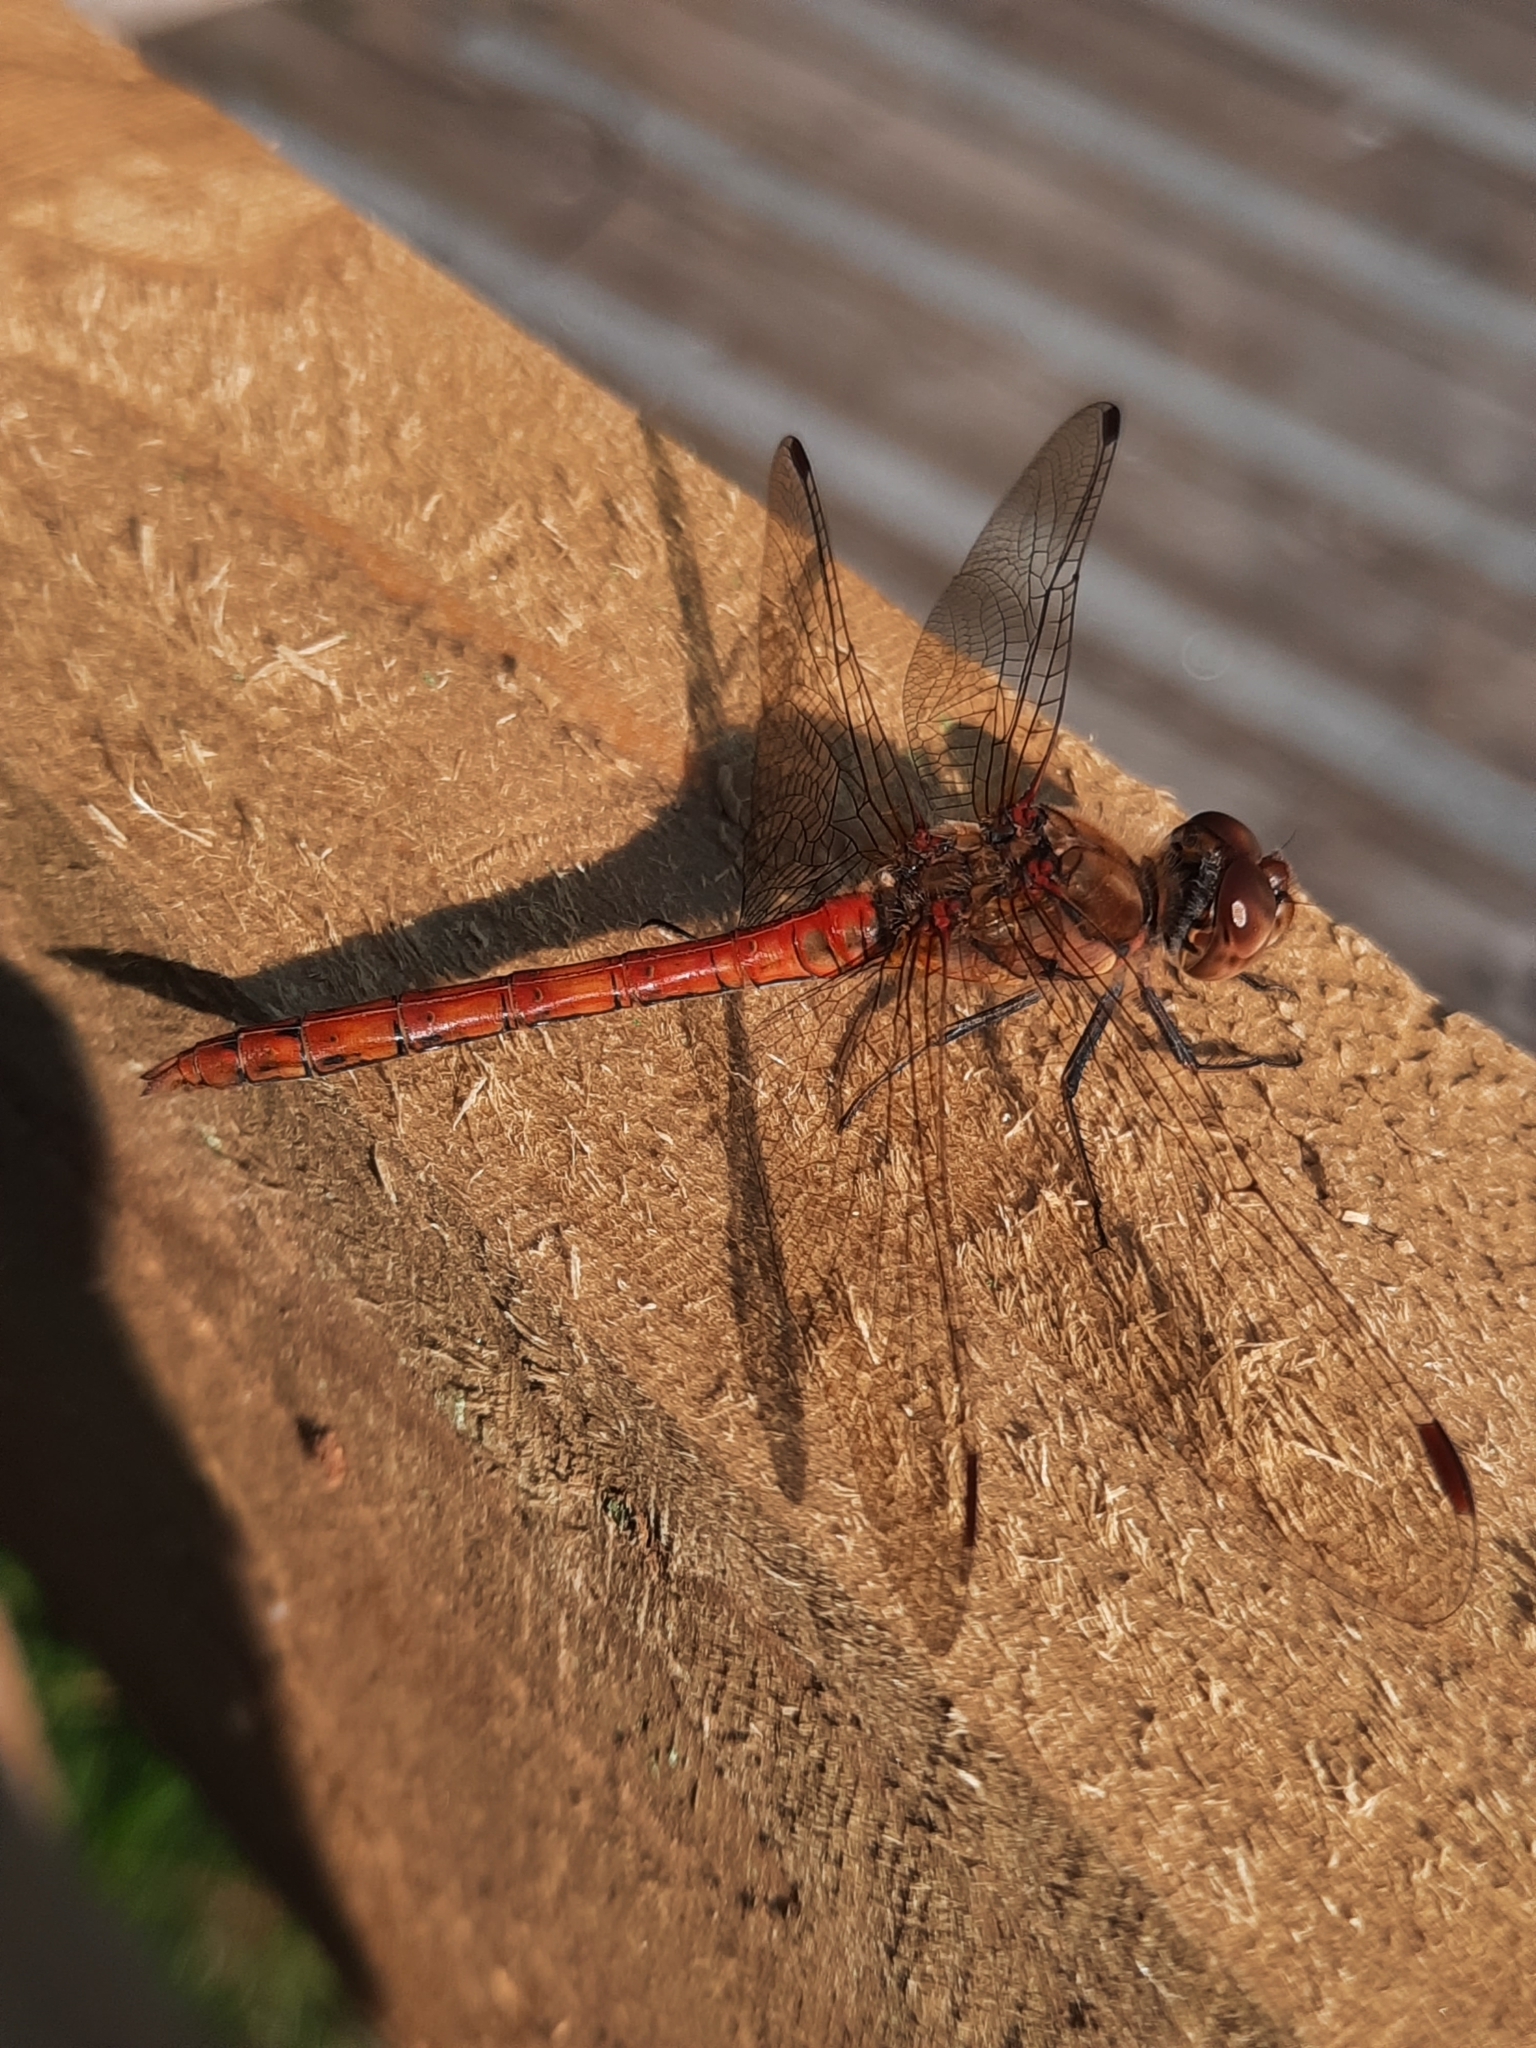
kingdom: Animalia
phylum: Arthropoda
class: Insecta
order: Odonata
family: Libellulidae
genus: Sympetrum
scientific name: Sympetrum striolatum
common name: Common darter
